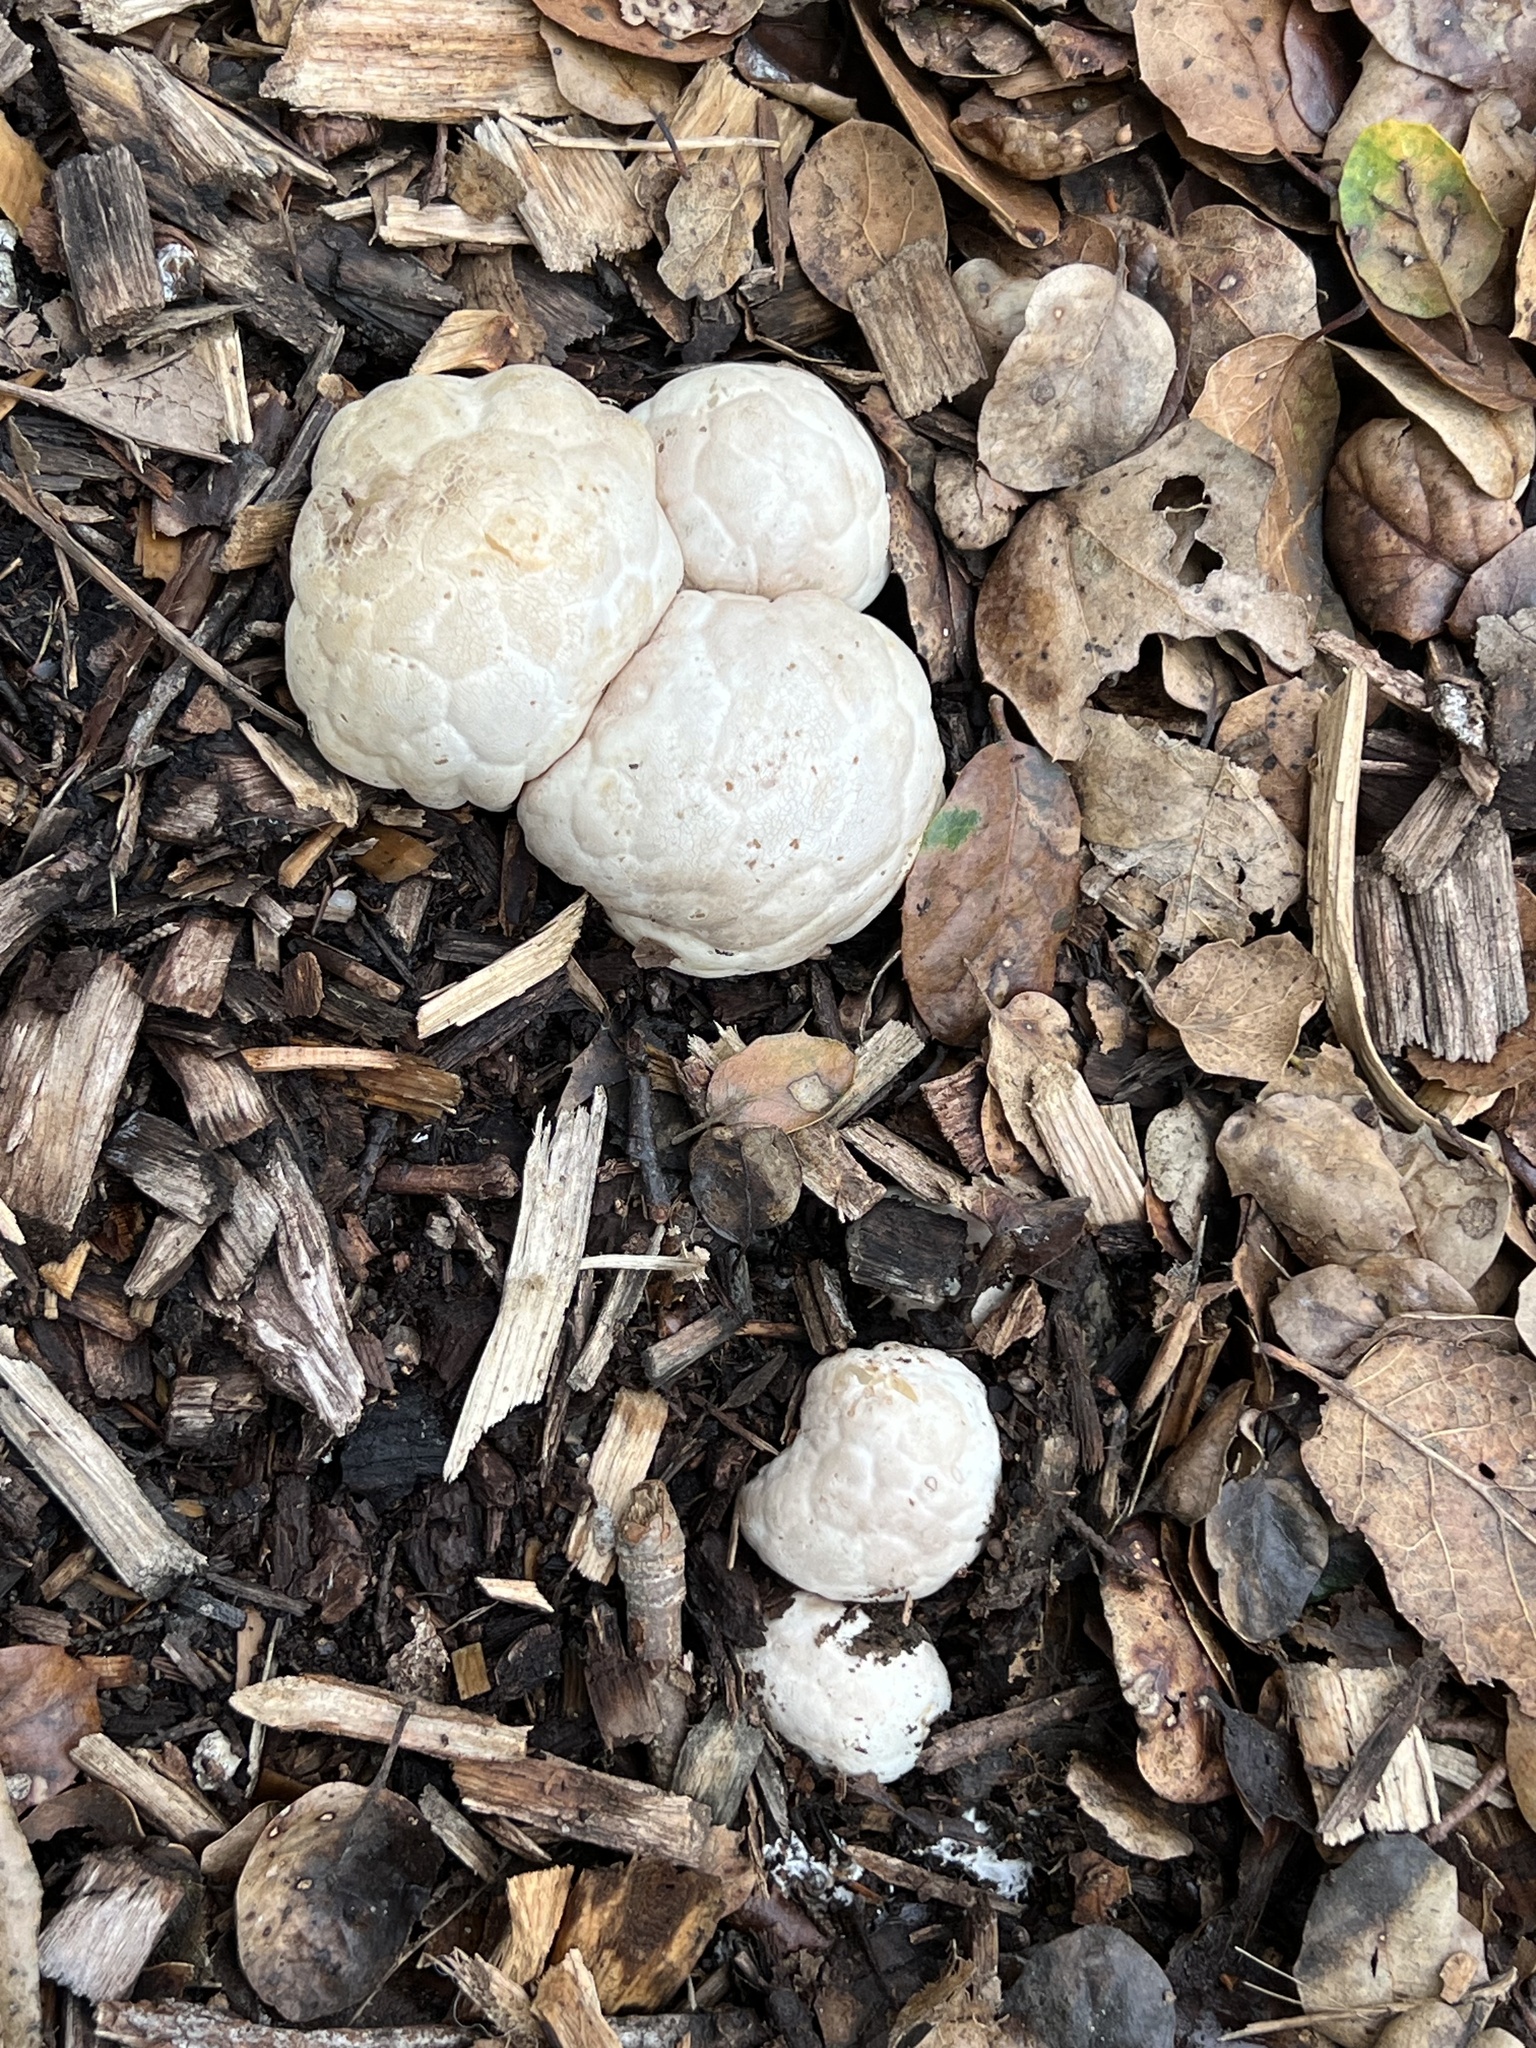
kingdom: Fungi
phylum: Basidiomycota
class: Agaricomycetes
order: Phallales
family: Phallaceae
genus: Clathrus
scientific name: Clathrus ruber
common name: Red cage
